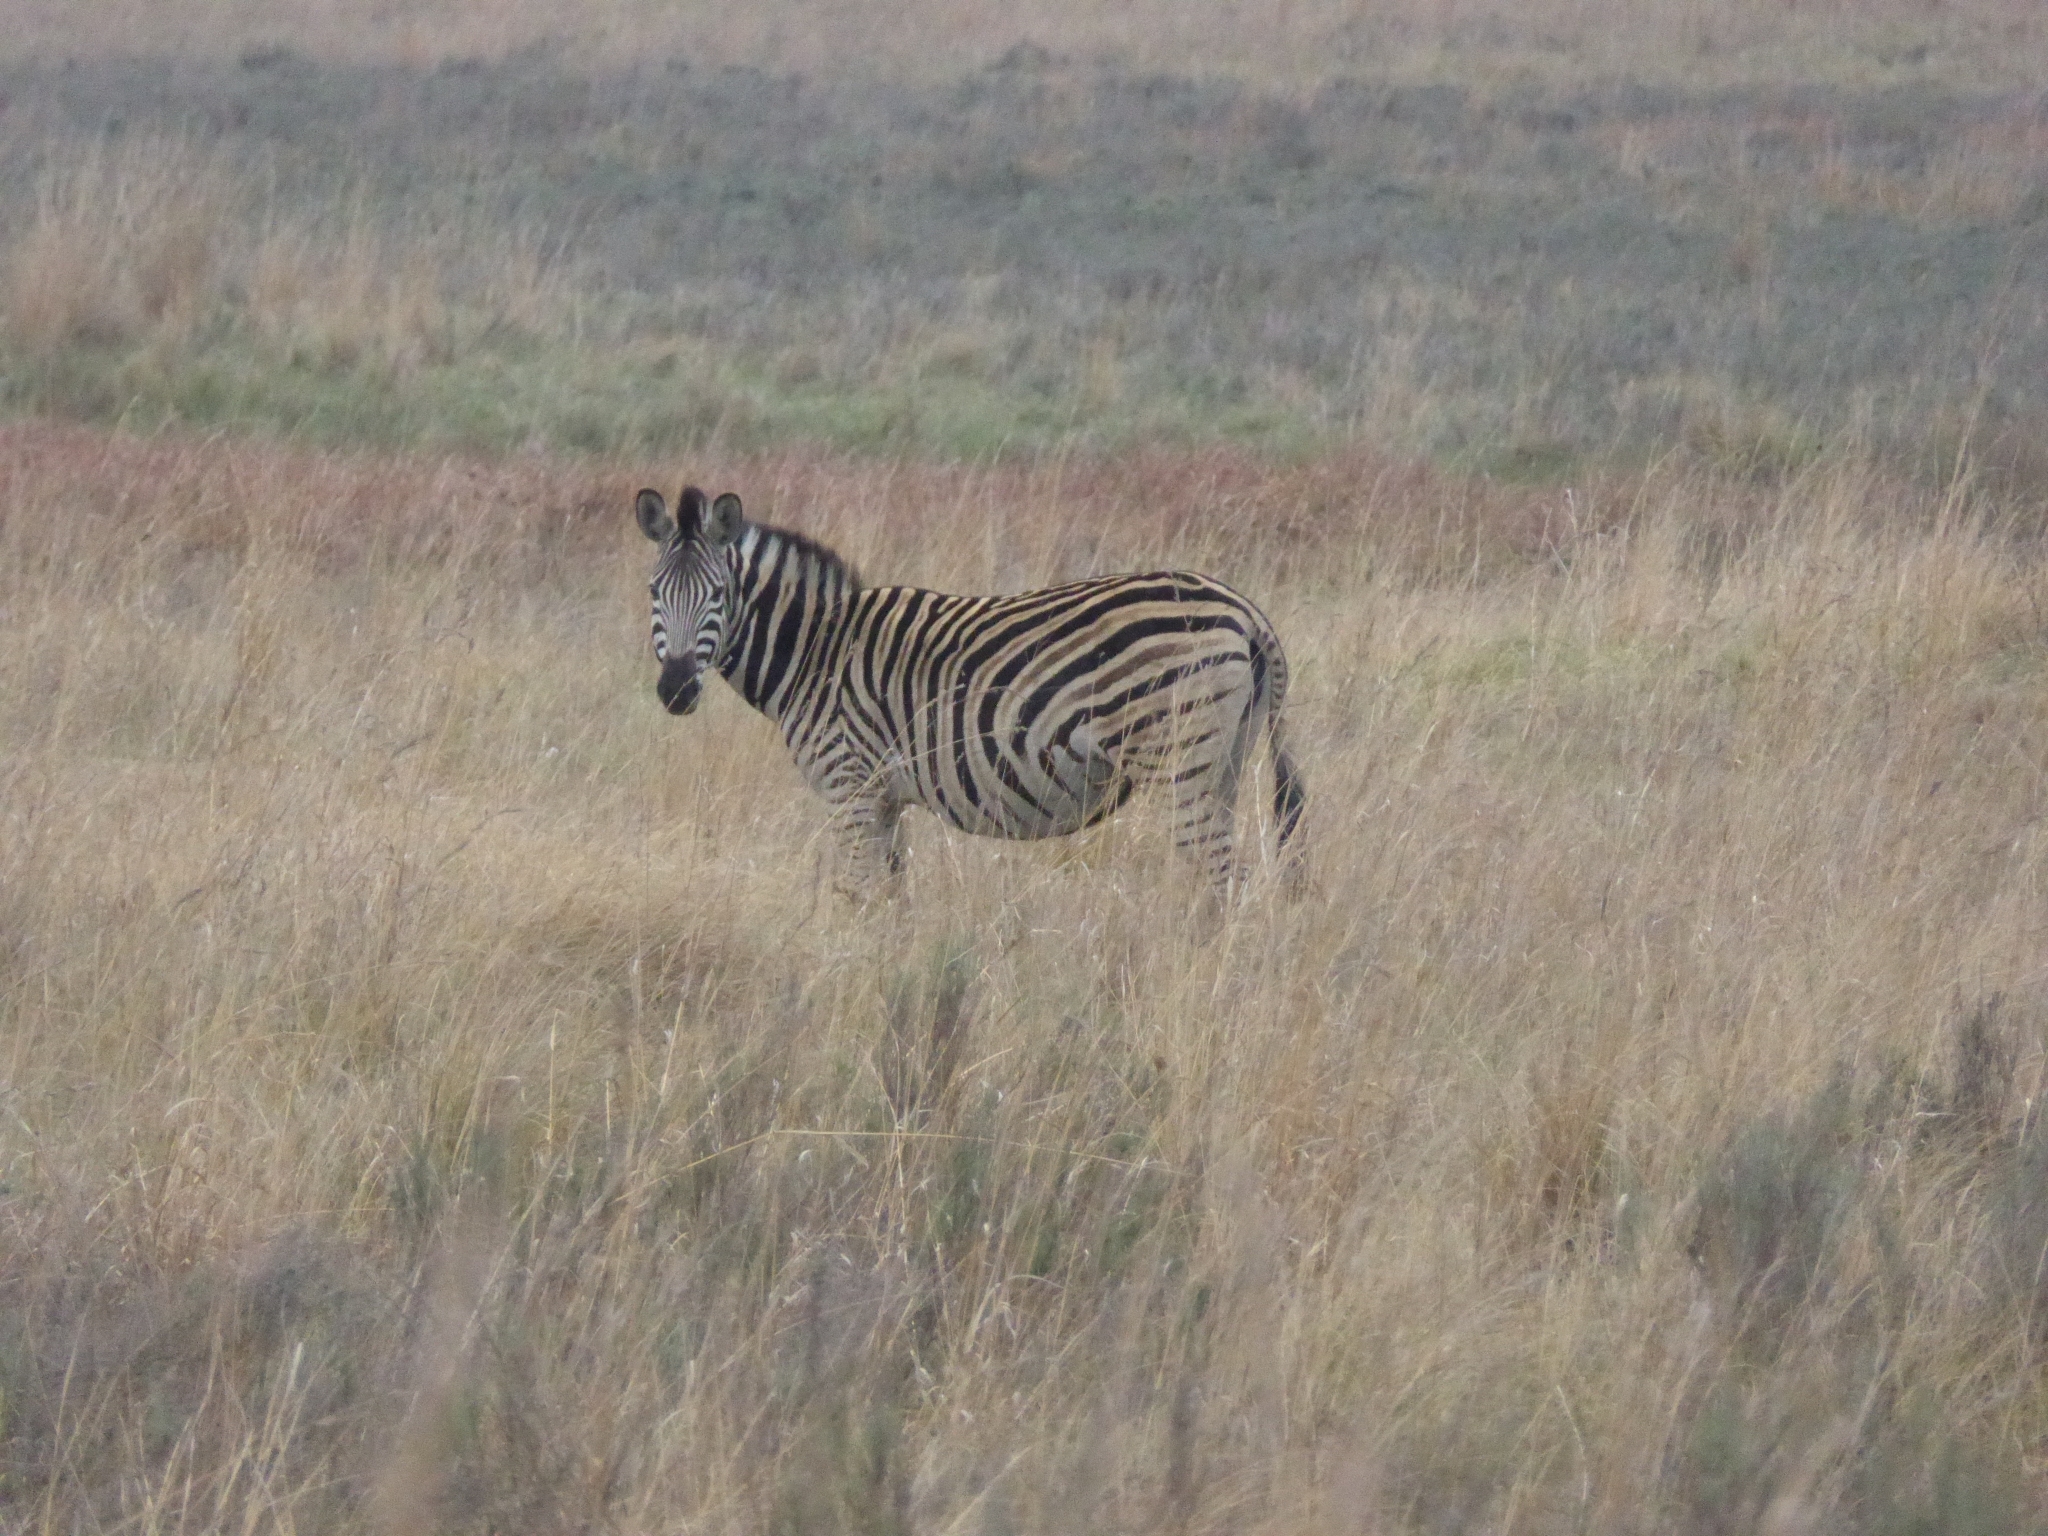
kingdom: Animalia
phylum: Chordata
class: Mammalia
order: Perissodactyla
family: Equidae
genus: Equus
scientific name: Equus quagga
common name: Plains zebra
